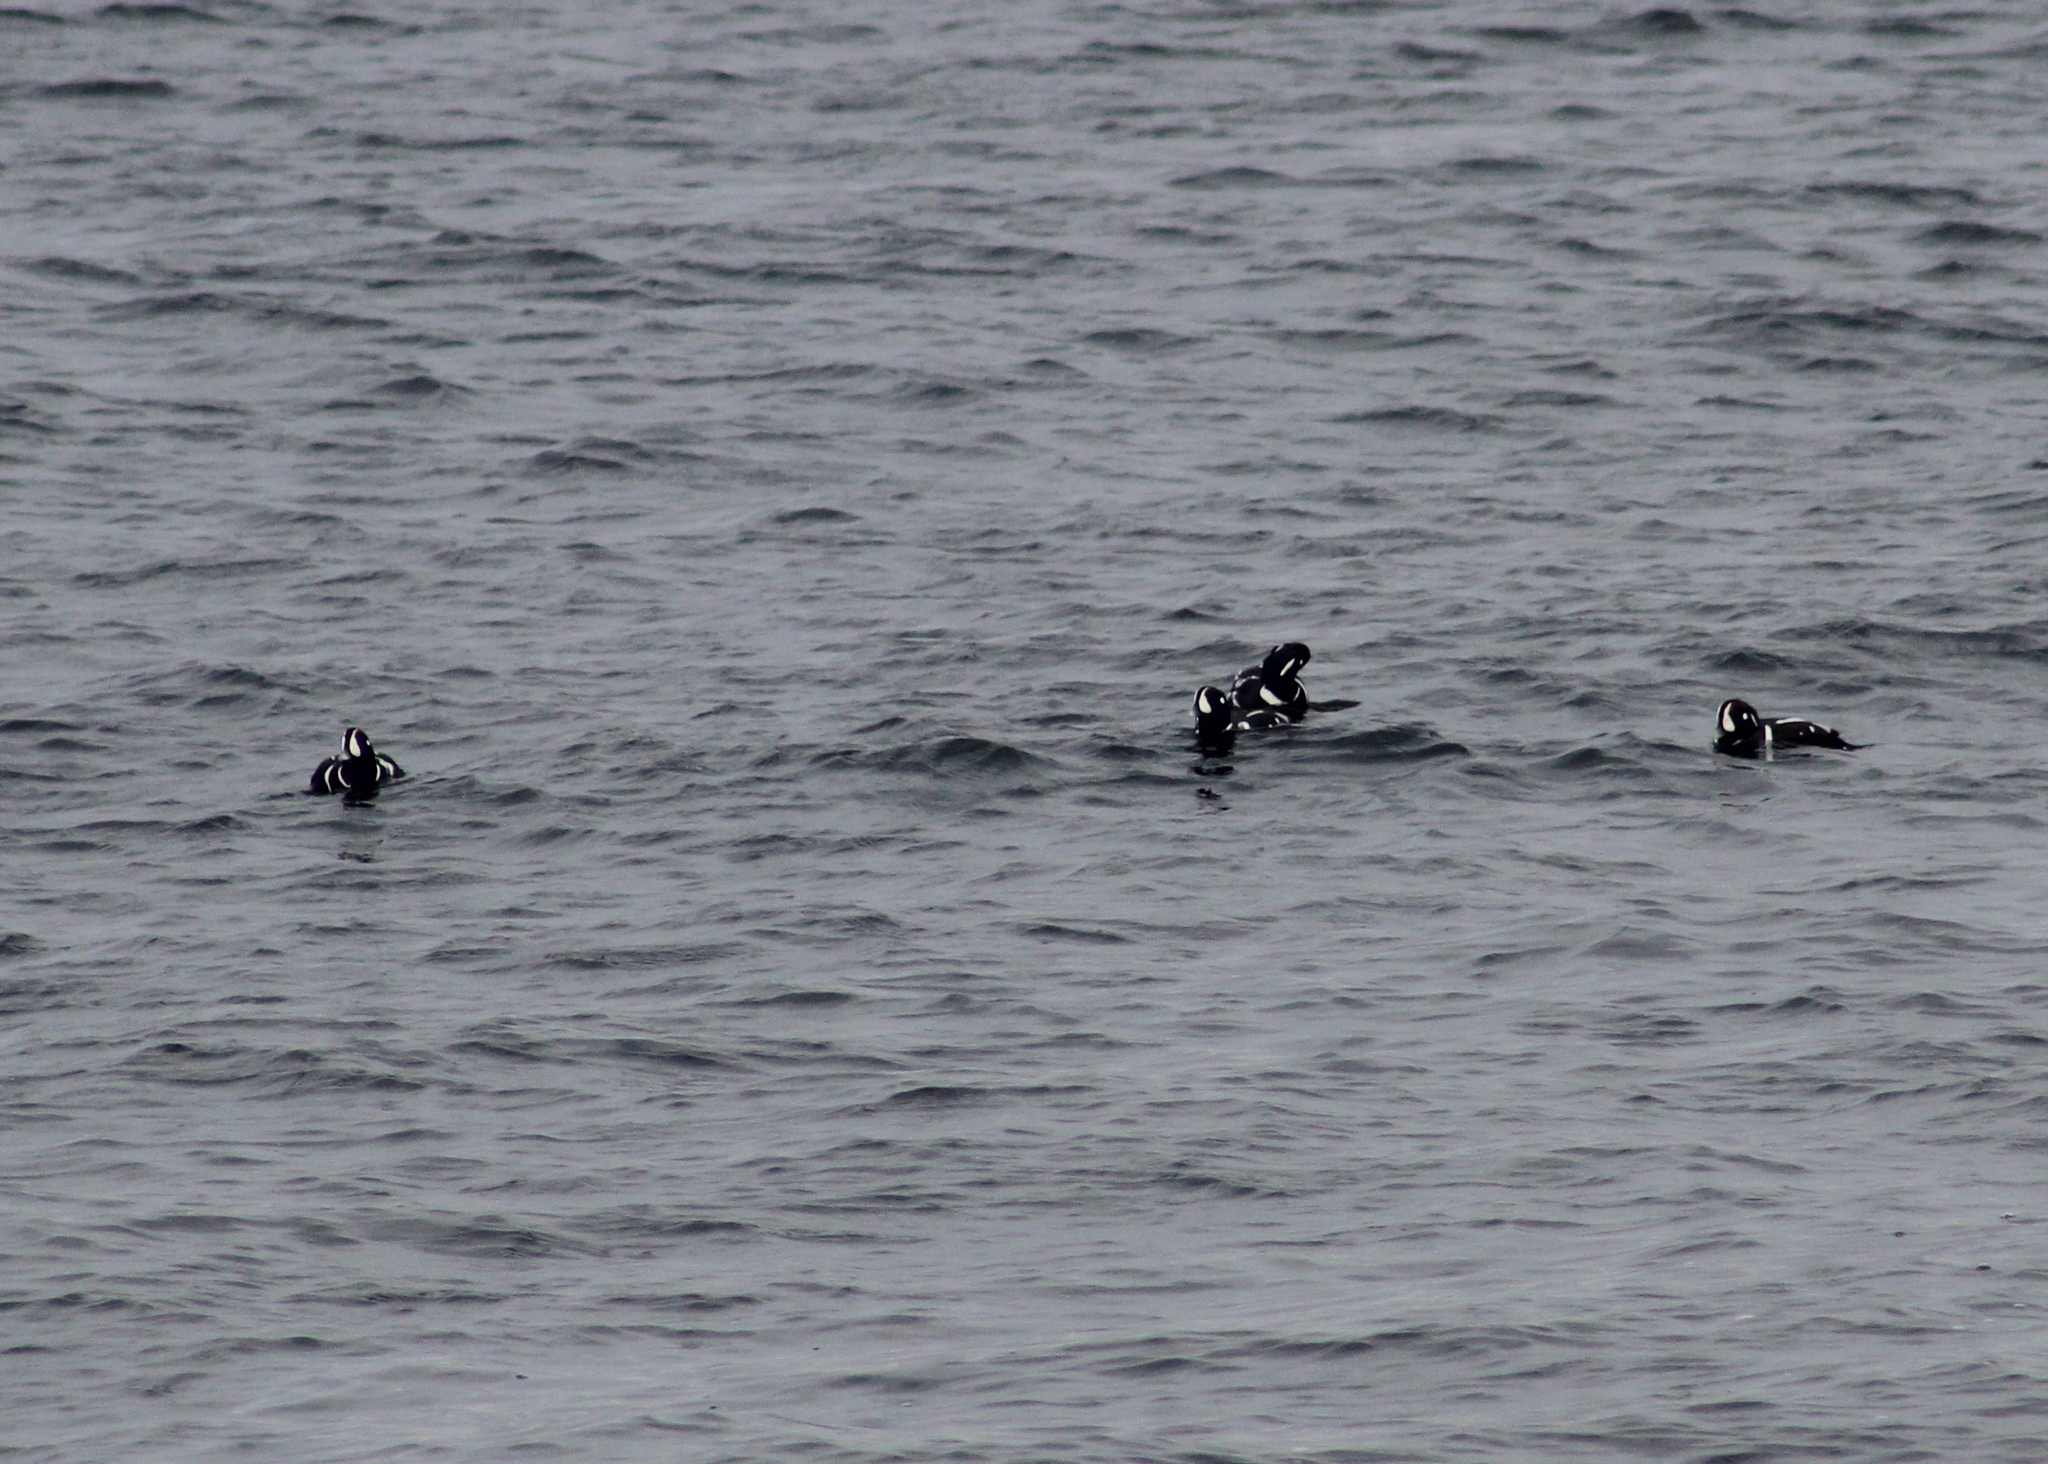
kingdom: Animalia
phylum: Chordata
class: Aves
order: Anseriformes
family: Anatidae
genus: Histrionicus
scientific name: Histrionicus histrionicus
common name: Harlequin duck
